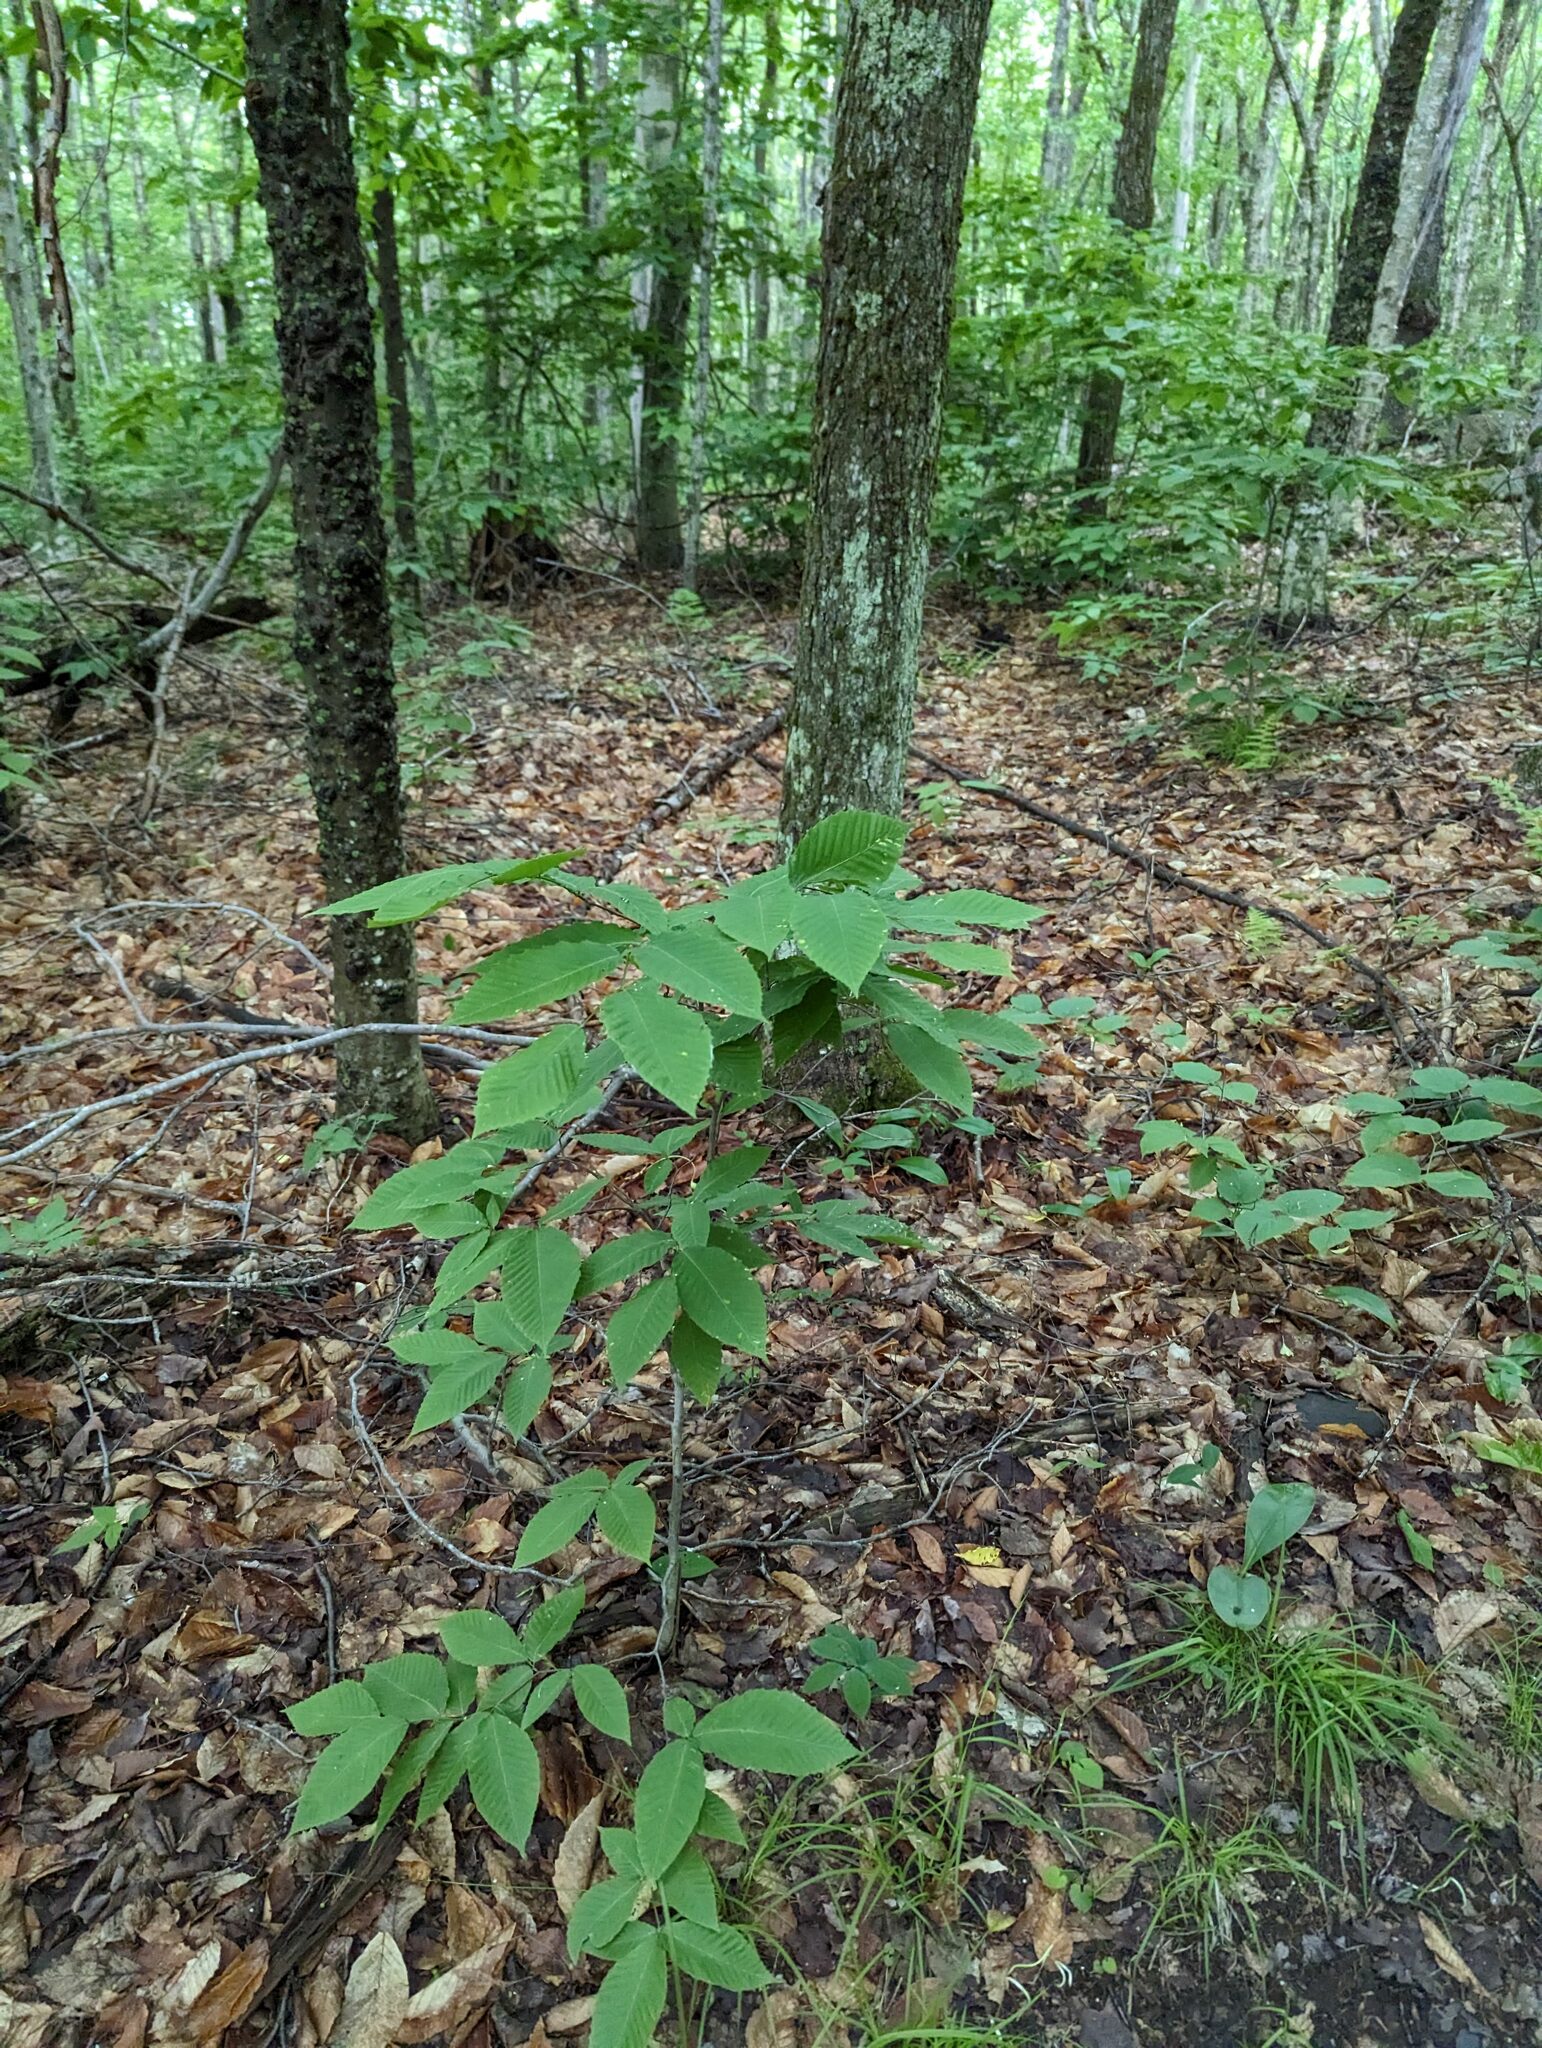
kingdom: Plantae
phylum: Tracheophyta
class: Magnoliopsida
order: Fagales
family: Fagaceae
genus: Fagus
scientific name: Fagus grandifolia
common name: American beech
